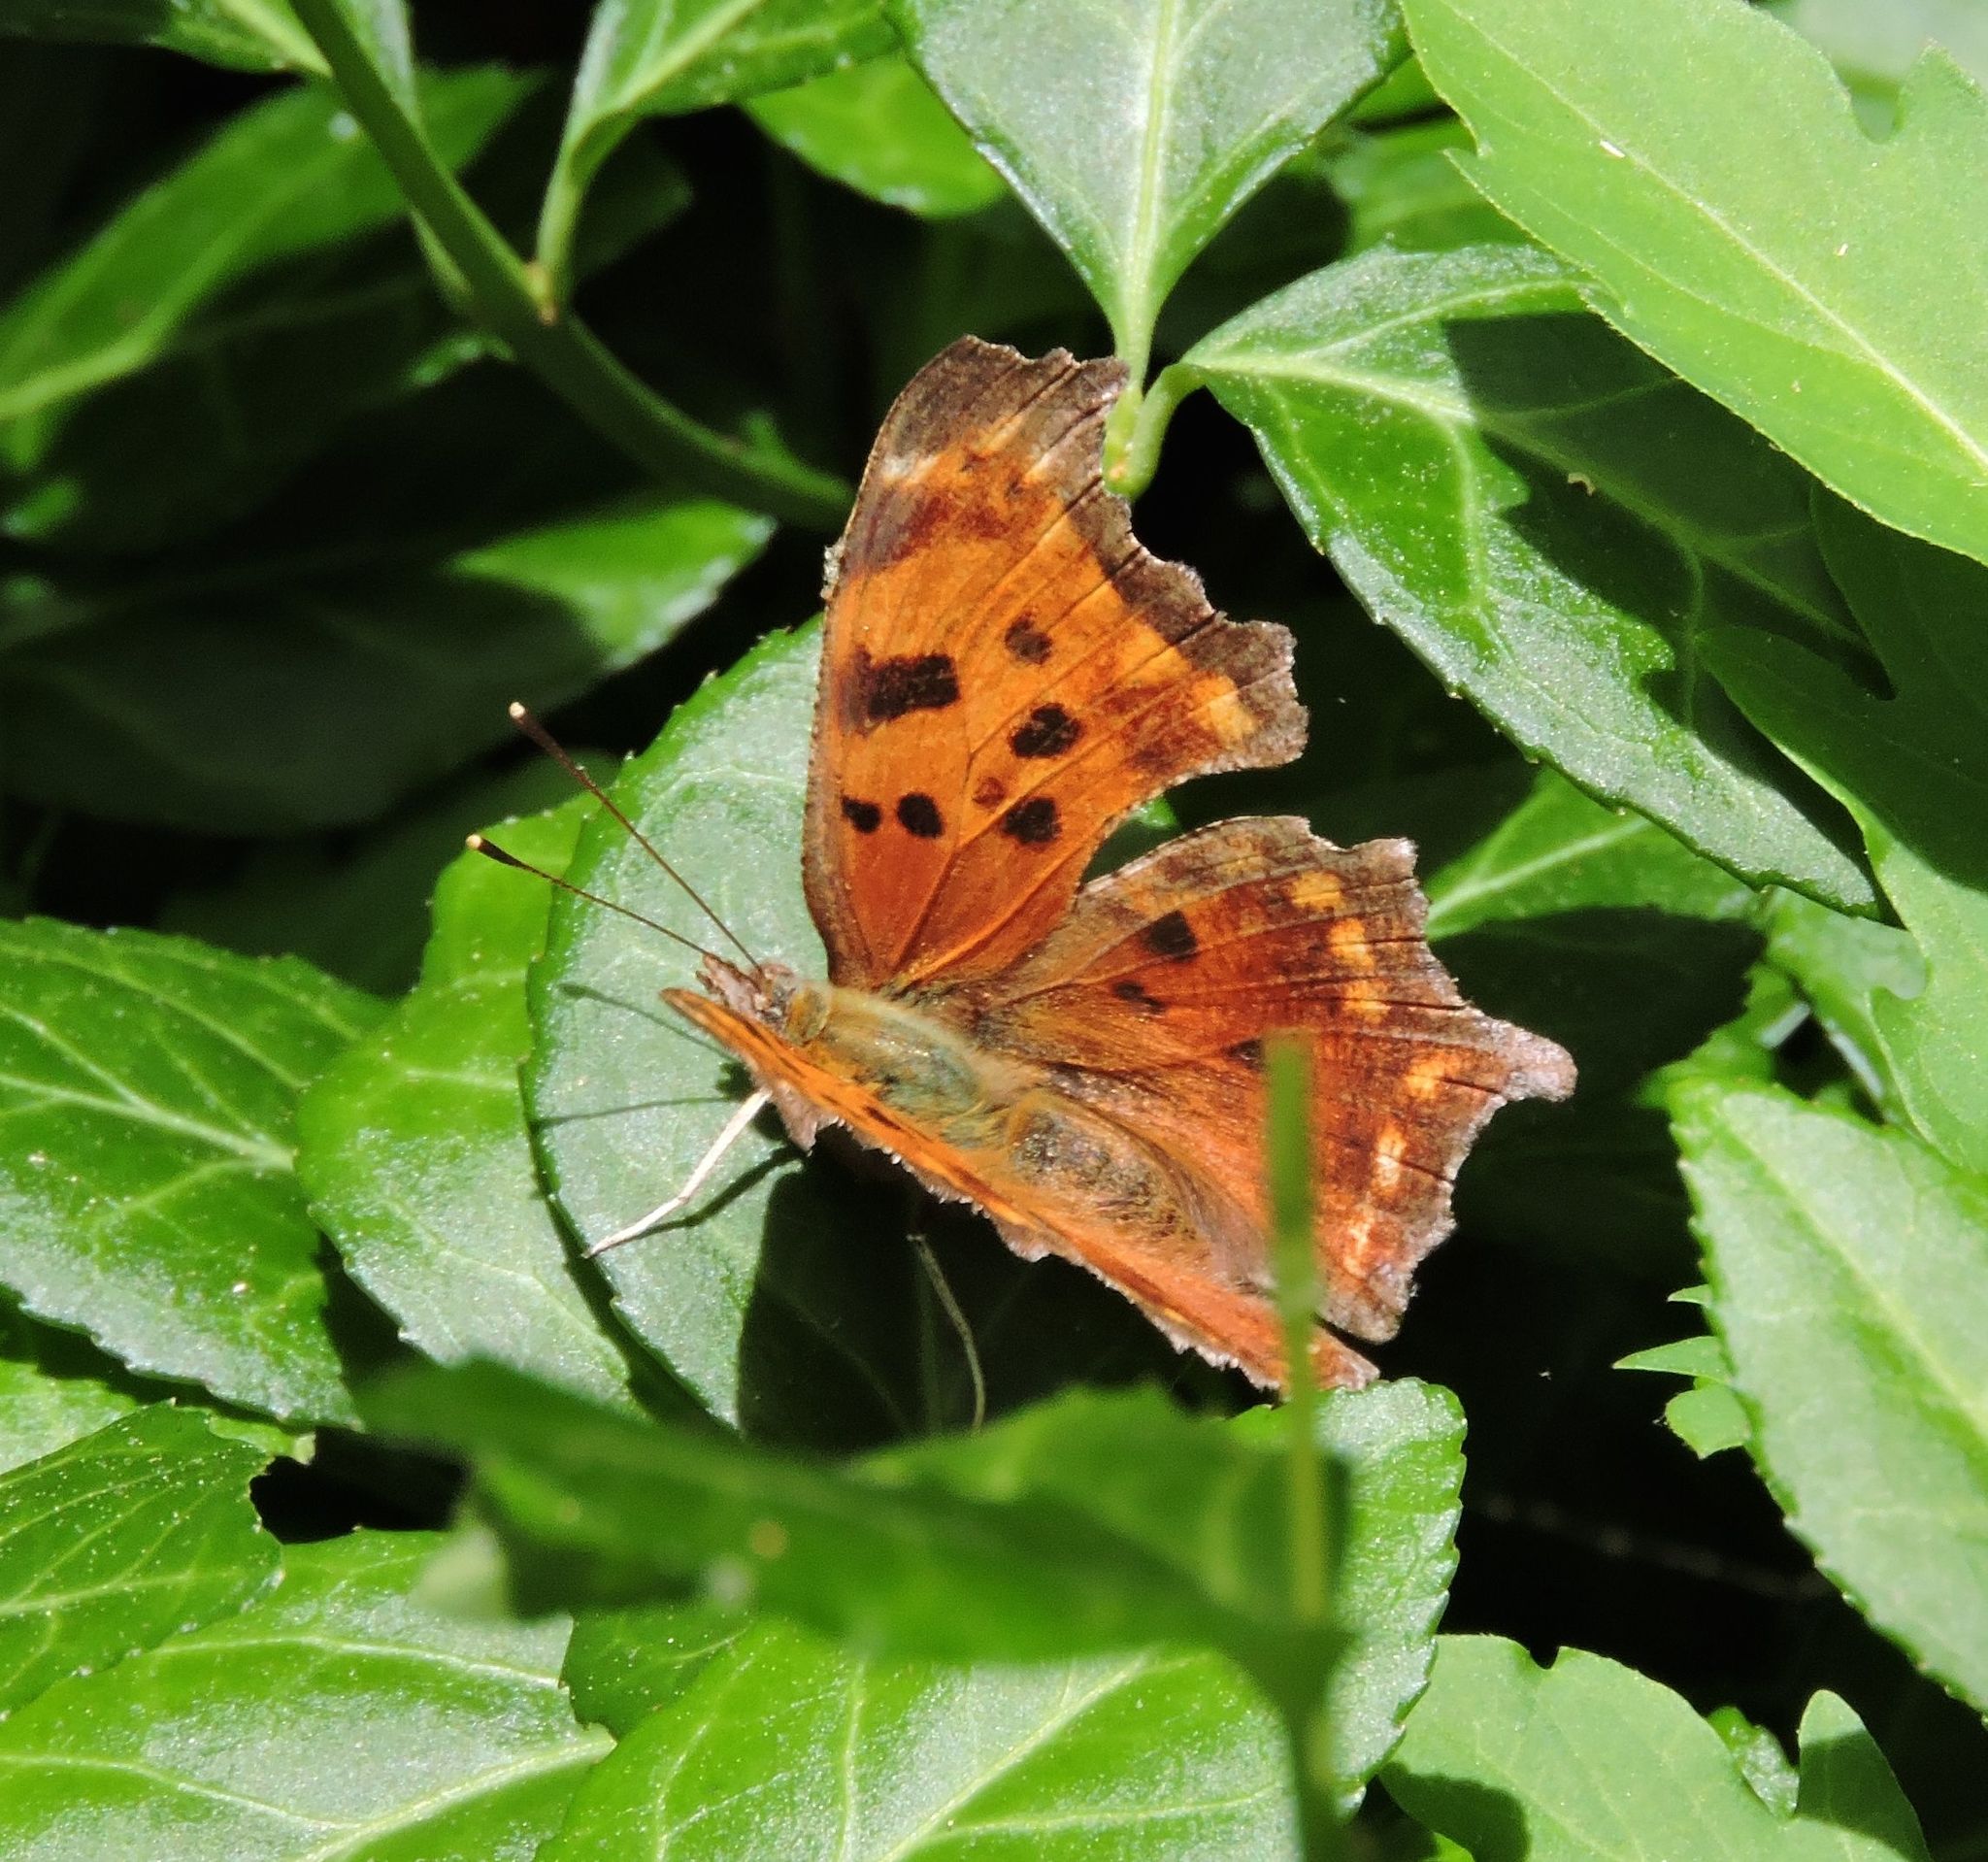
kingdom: Animalia
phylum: Arthropoda
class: Insecta
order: Lepidoptera
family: Nymphalidae
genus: Polygonia
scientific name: Polygonia comma
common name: Eastern comma
